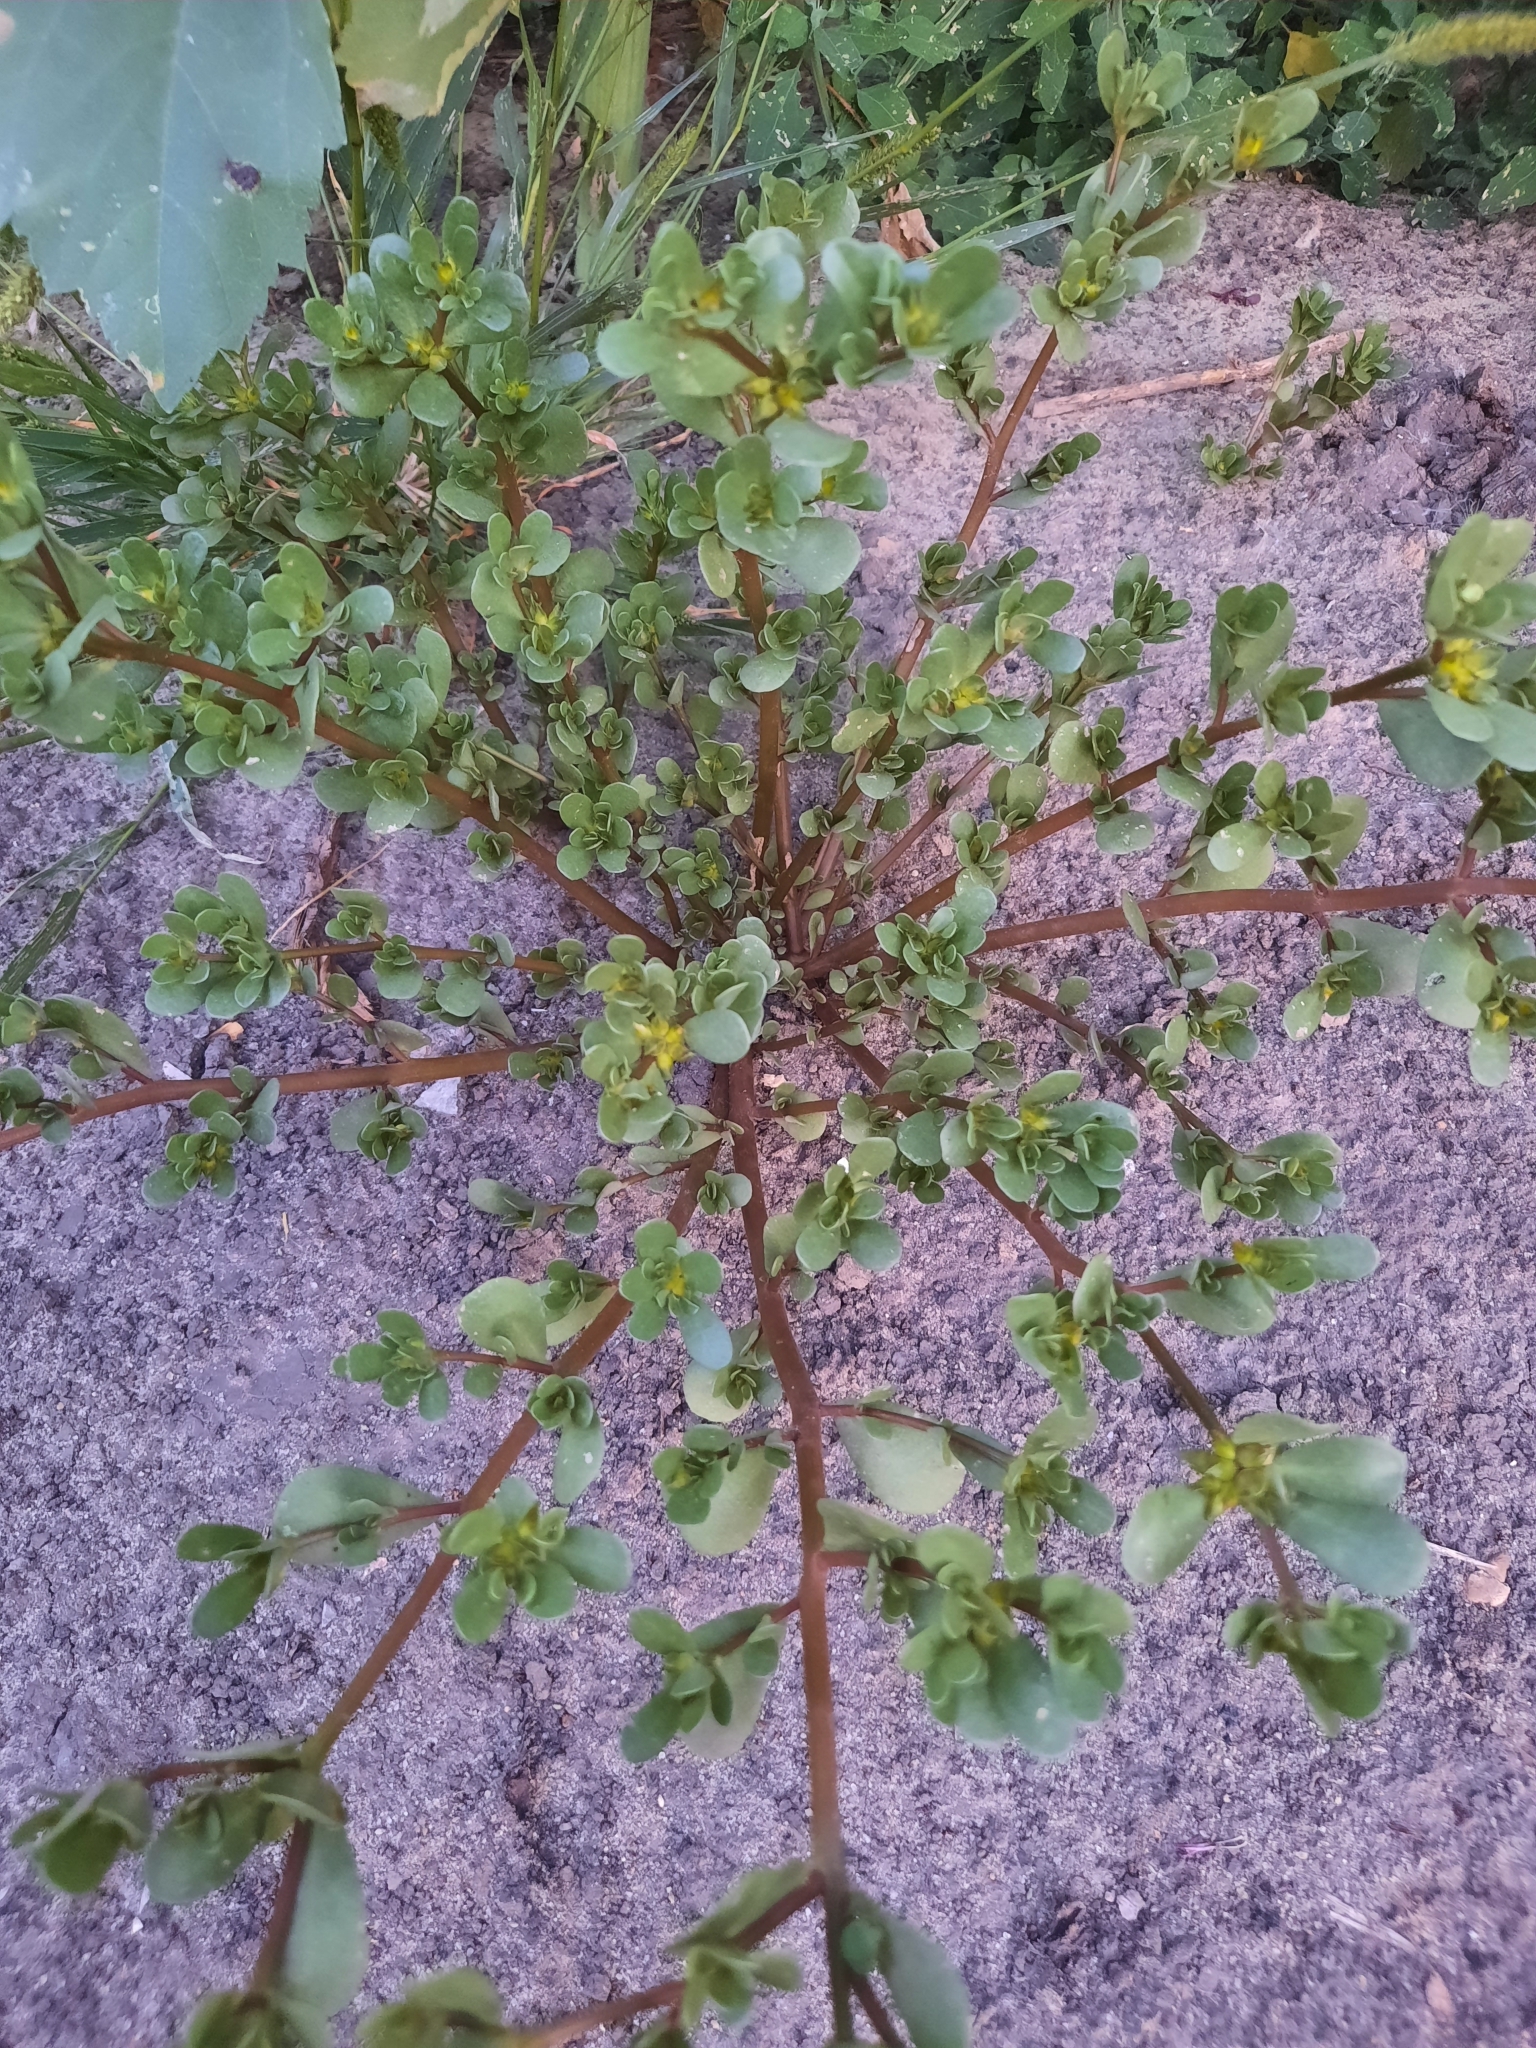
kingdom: Plantae
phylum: Tracheophyta
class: Magnoliopsida
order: Caryophyllales
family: Portulacaceae
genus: Portulaca
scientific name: Portulaca oleracea
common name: Common purslane
